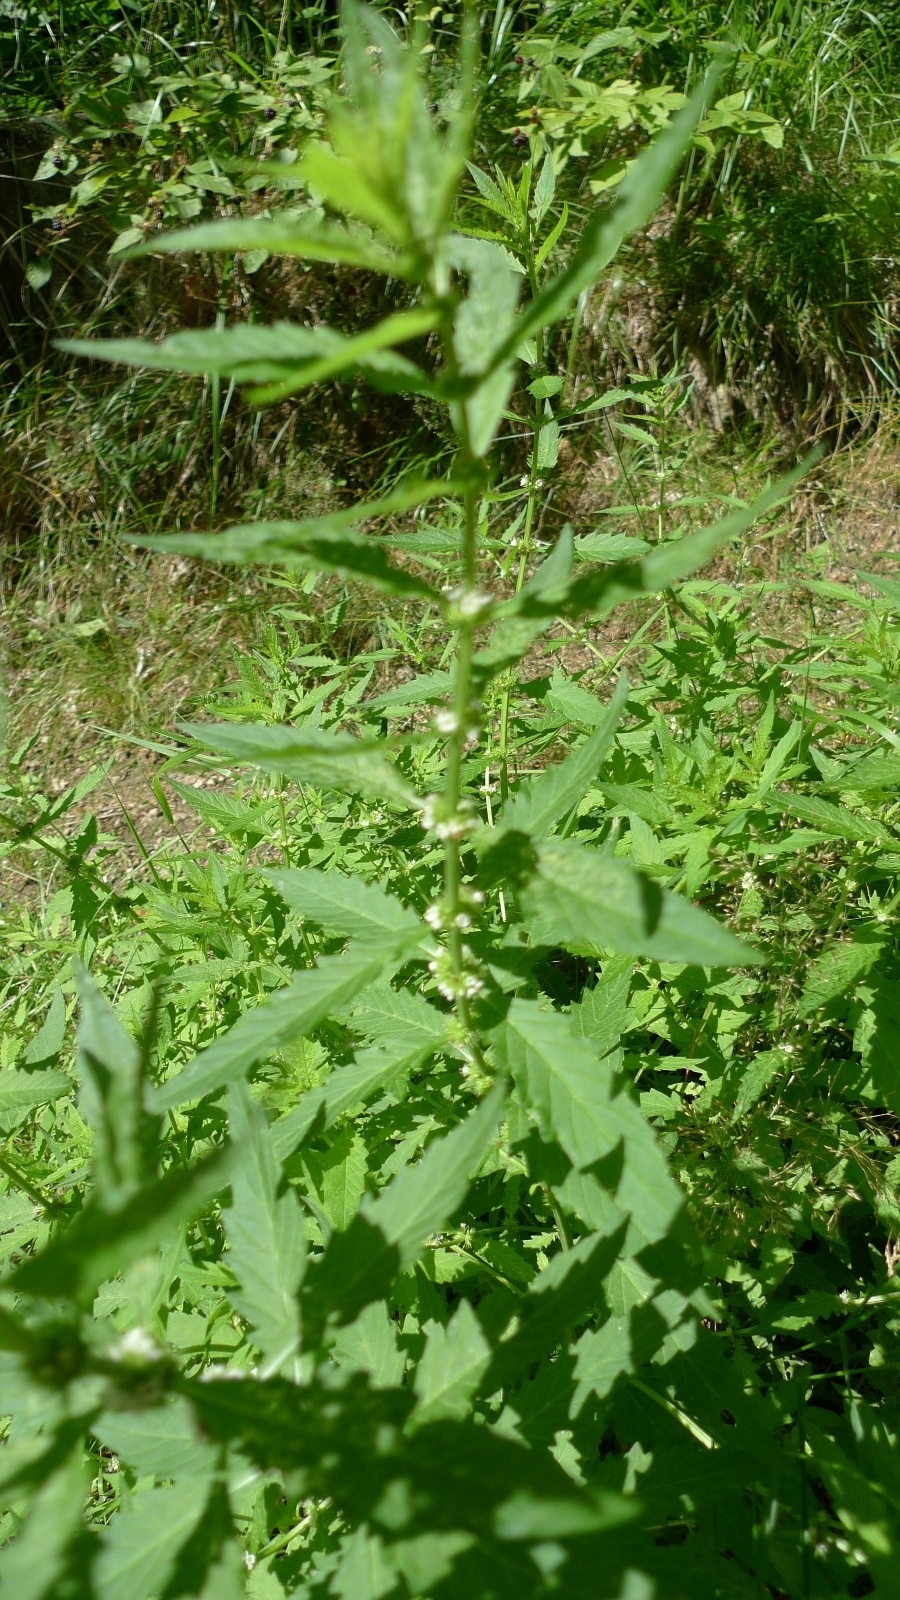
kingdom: Plantae
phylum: Tracheophyta
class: Magnoliopsida
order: Lamiales
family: Lamiaceae
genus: Lycopus
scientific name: Lycopus europaeus
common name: European bugleweed
